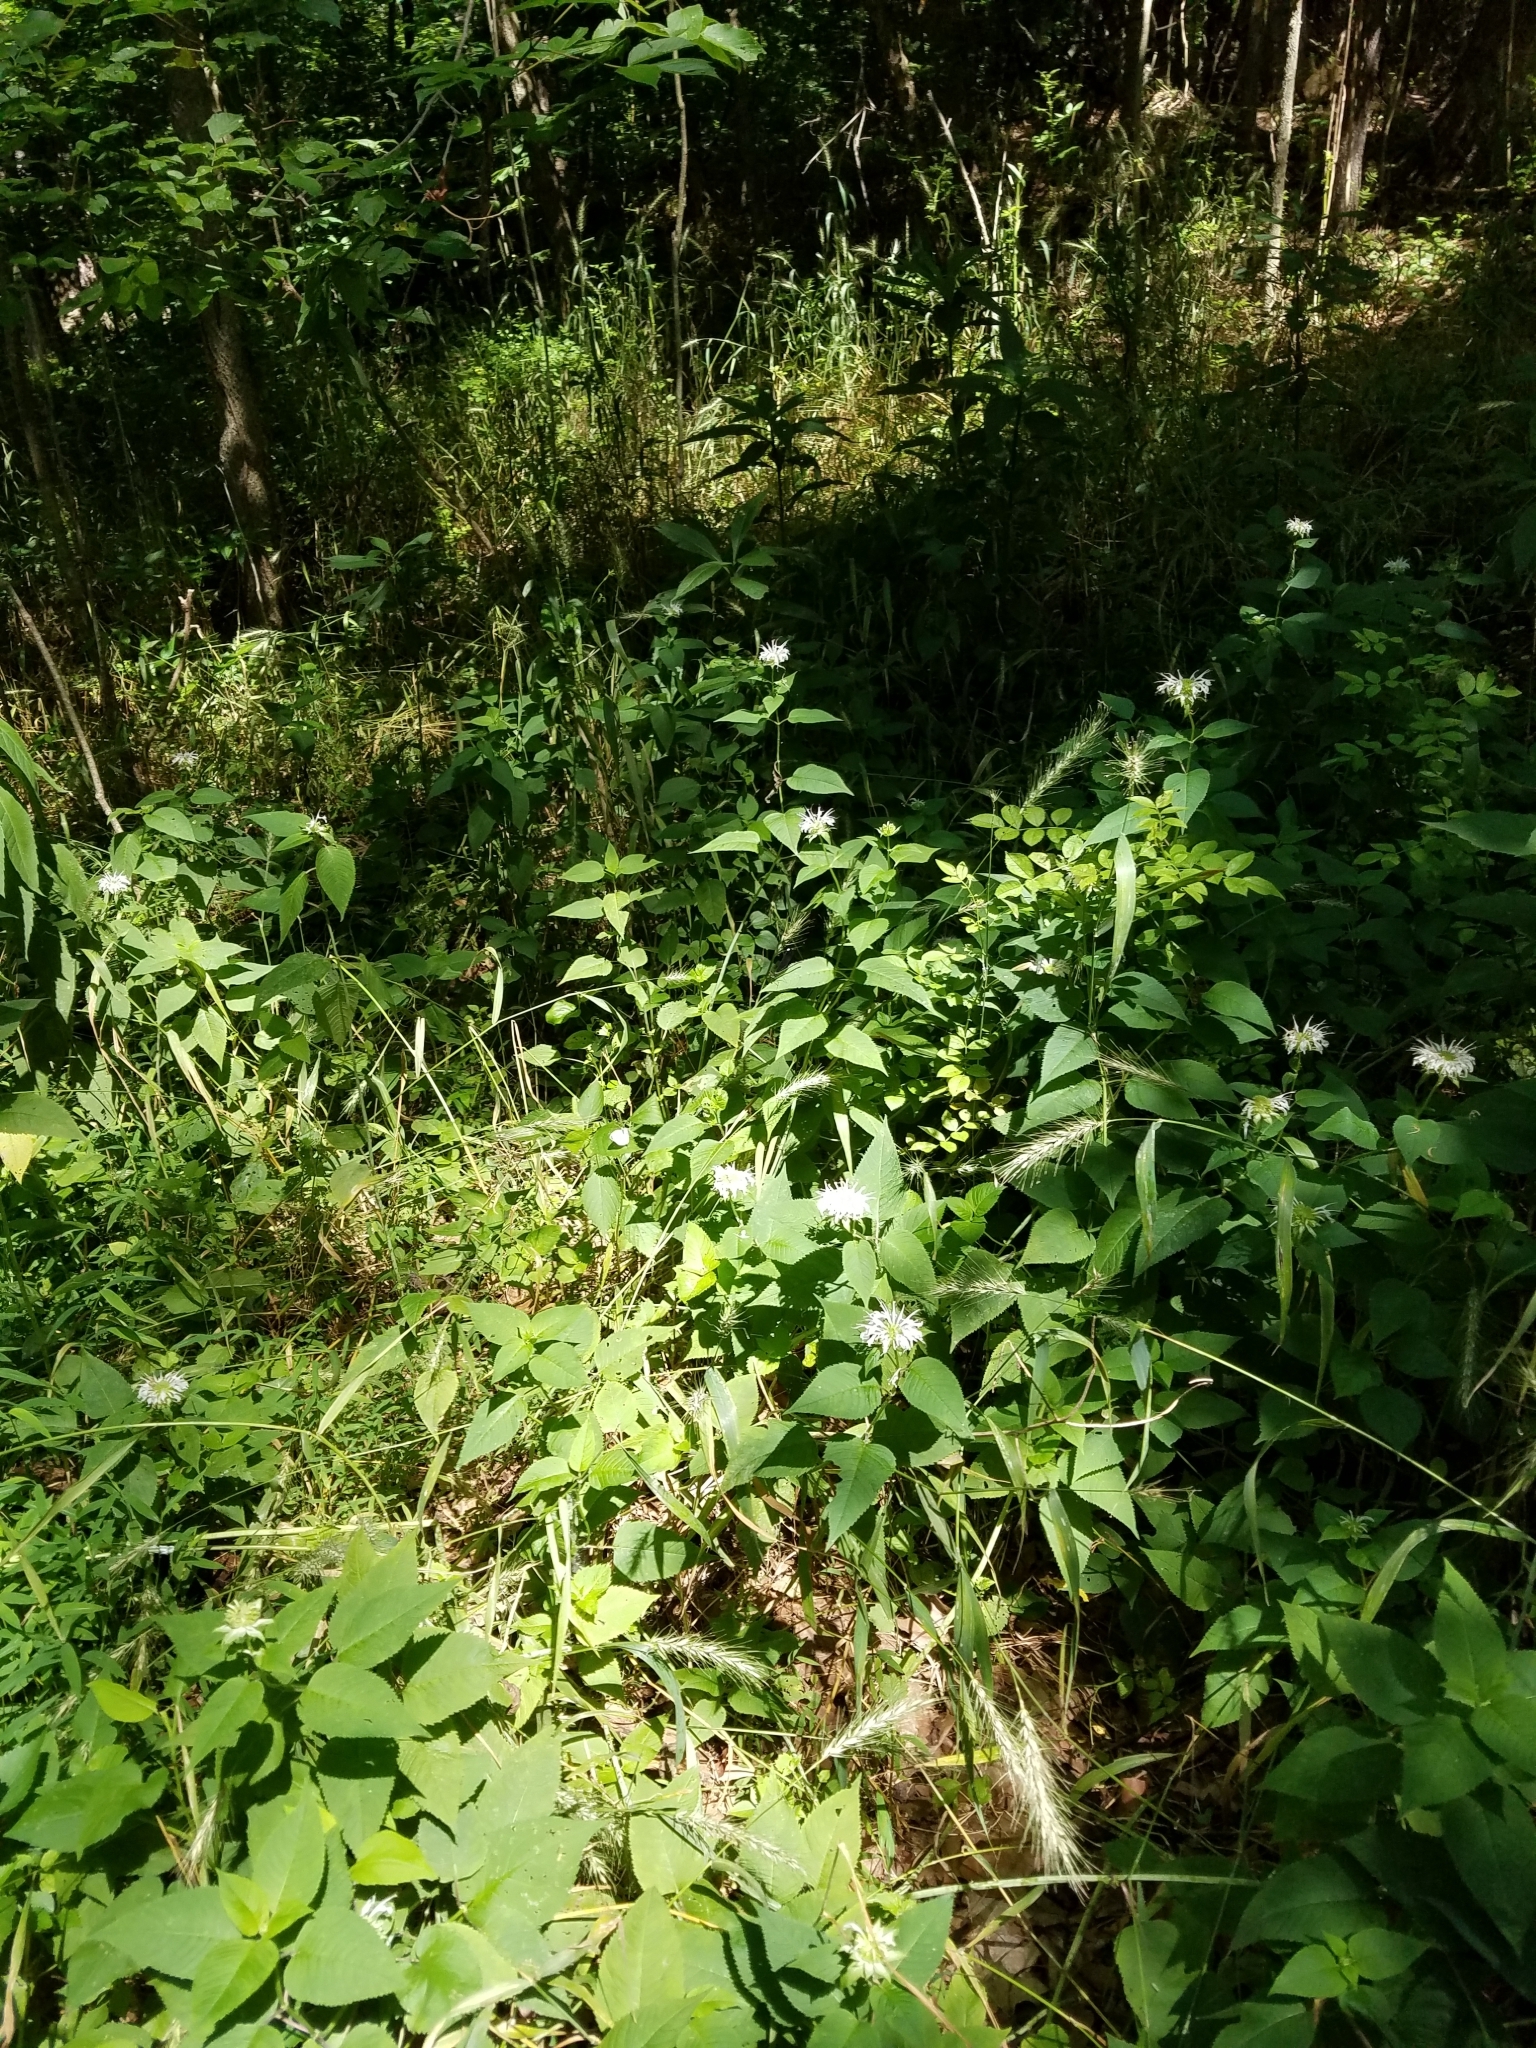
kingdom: Plantae
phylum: Tracheophyta
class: Magnoliopsida
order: Lamiales
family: Lamiaceae
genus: Monarda
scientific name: Monarda clinopodia
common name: Basil beebalm
